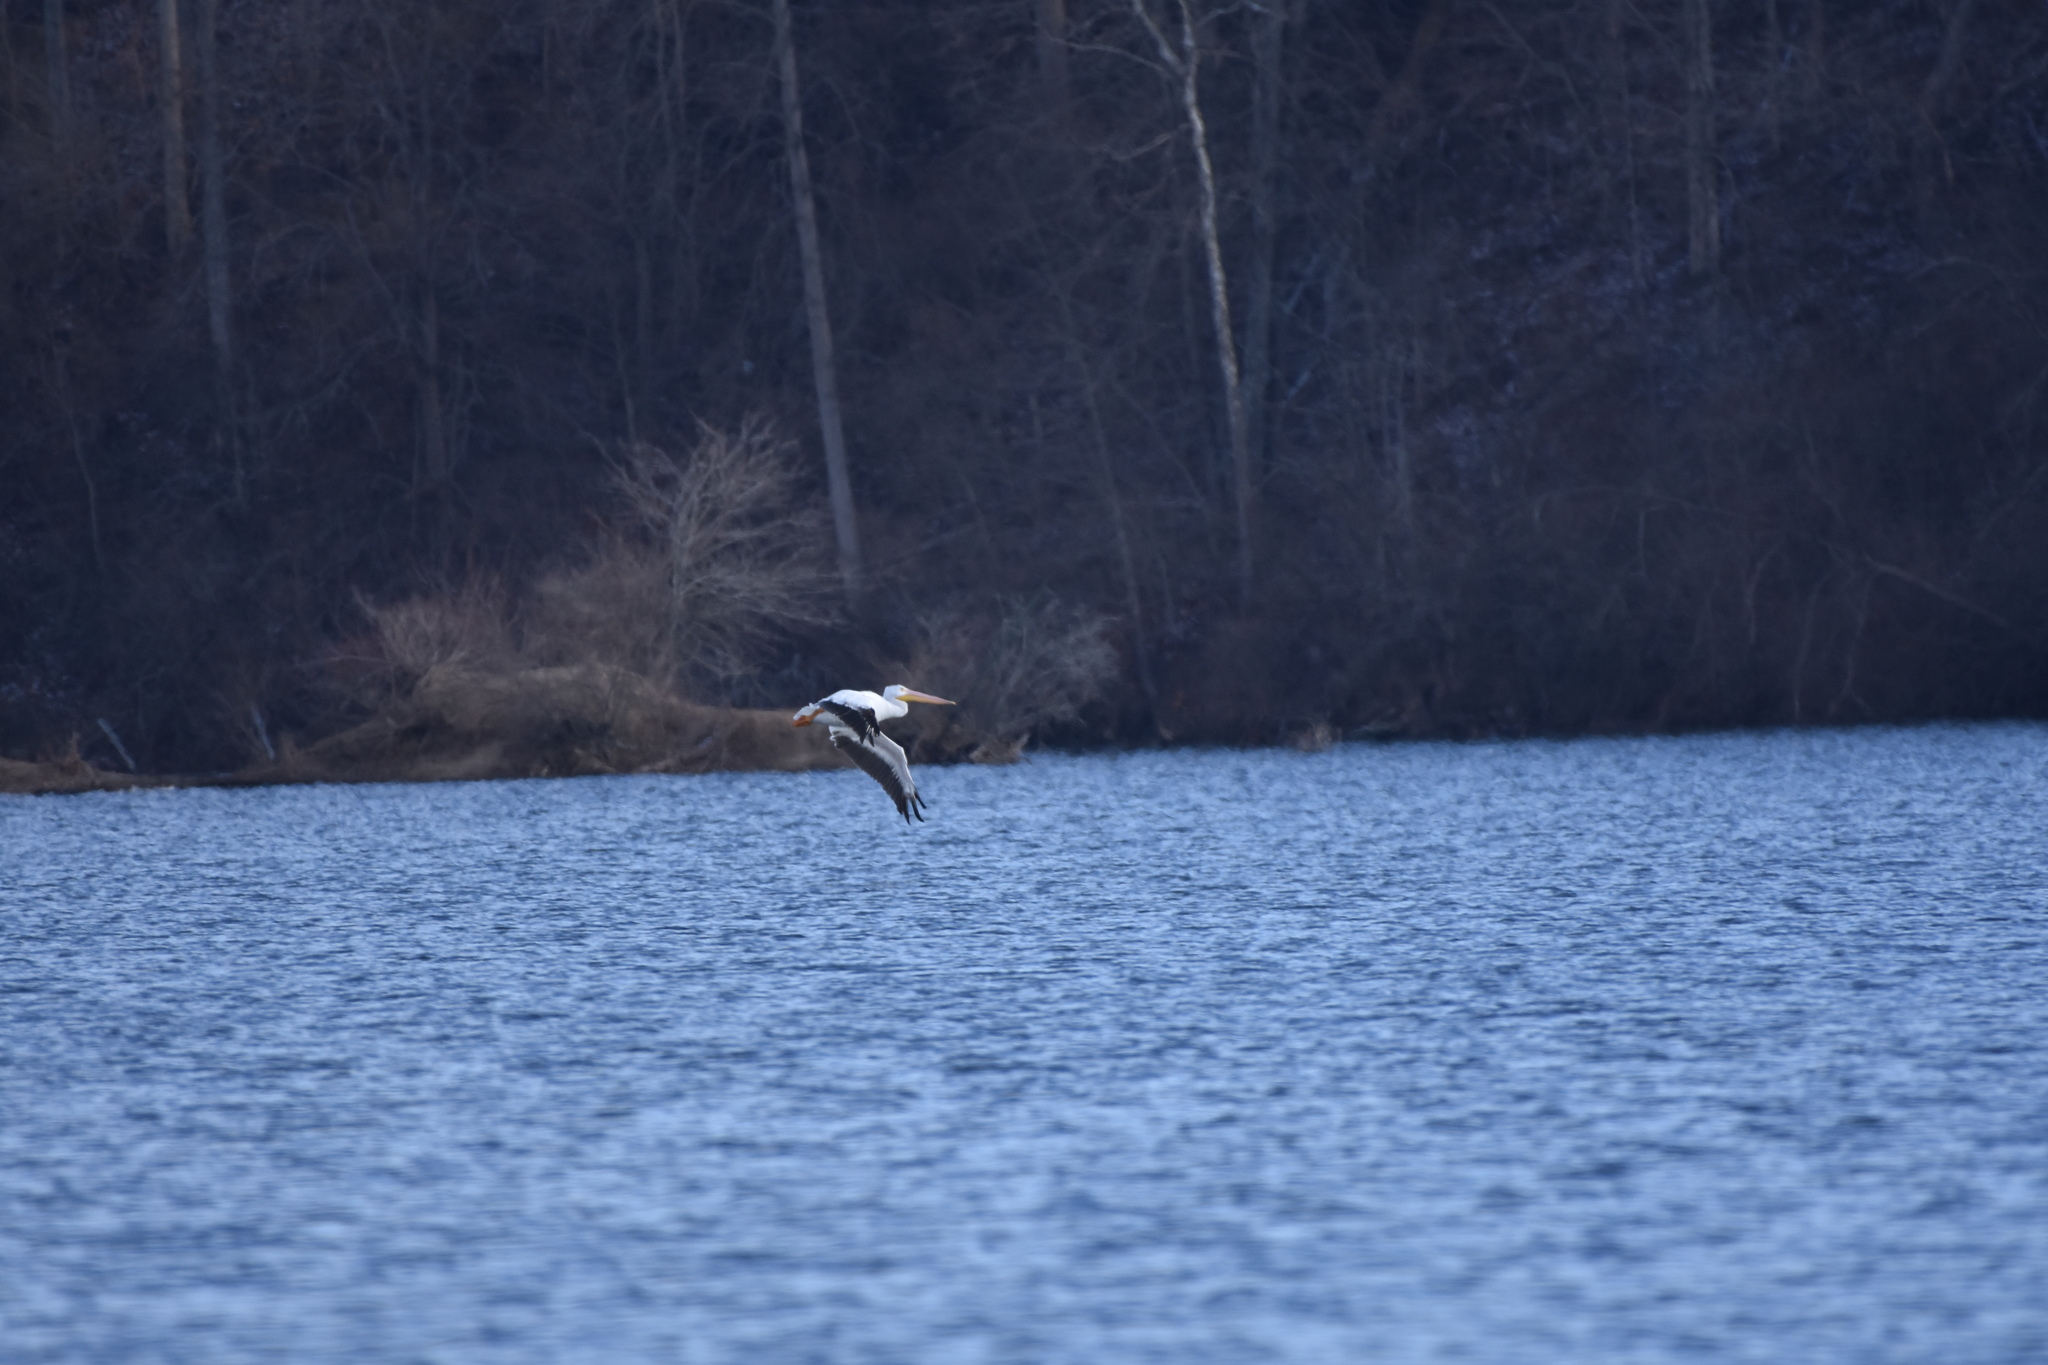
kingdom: Animalia
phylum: Chordata
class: Aves
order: Pelecaniformes
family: Pelecanidae
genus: Pelecanus
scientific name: Pelecanus erythrorhynchos
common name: American white pelican
